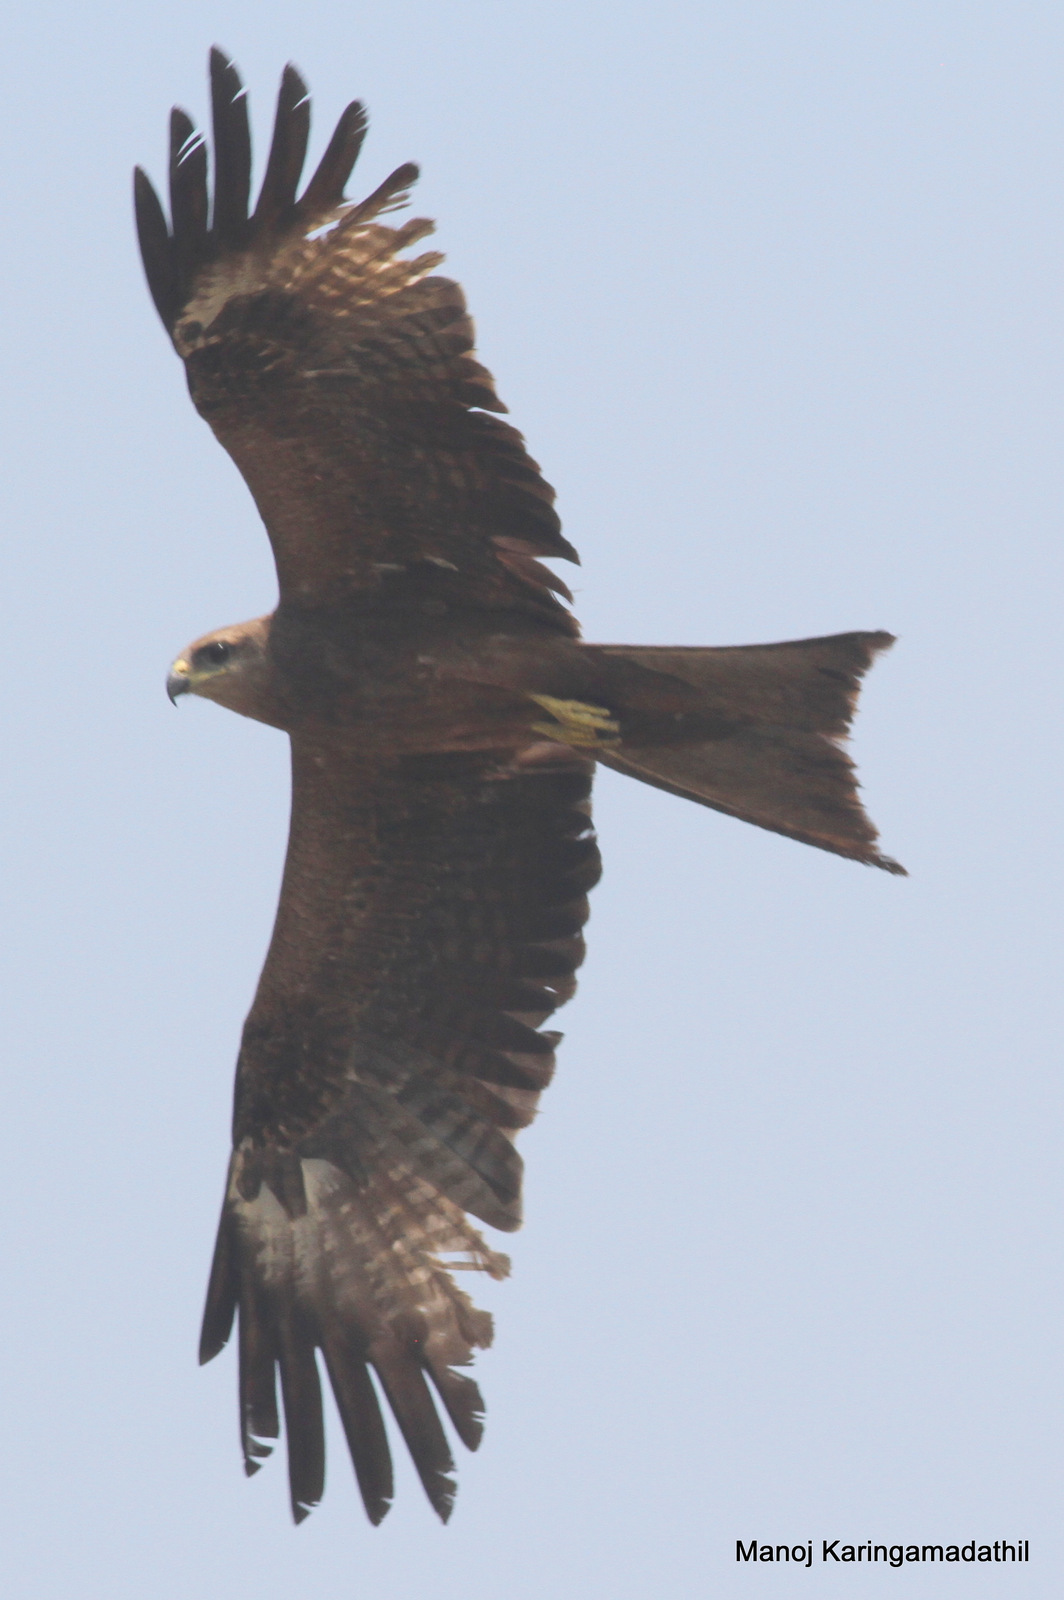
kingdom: Animalia
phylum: Chordata
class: Aves
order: Accipitriformes
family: Accipitridae
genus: Milvus
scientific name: Milvus migrans
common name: Black kite
